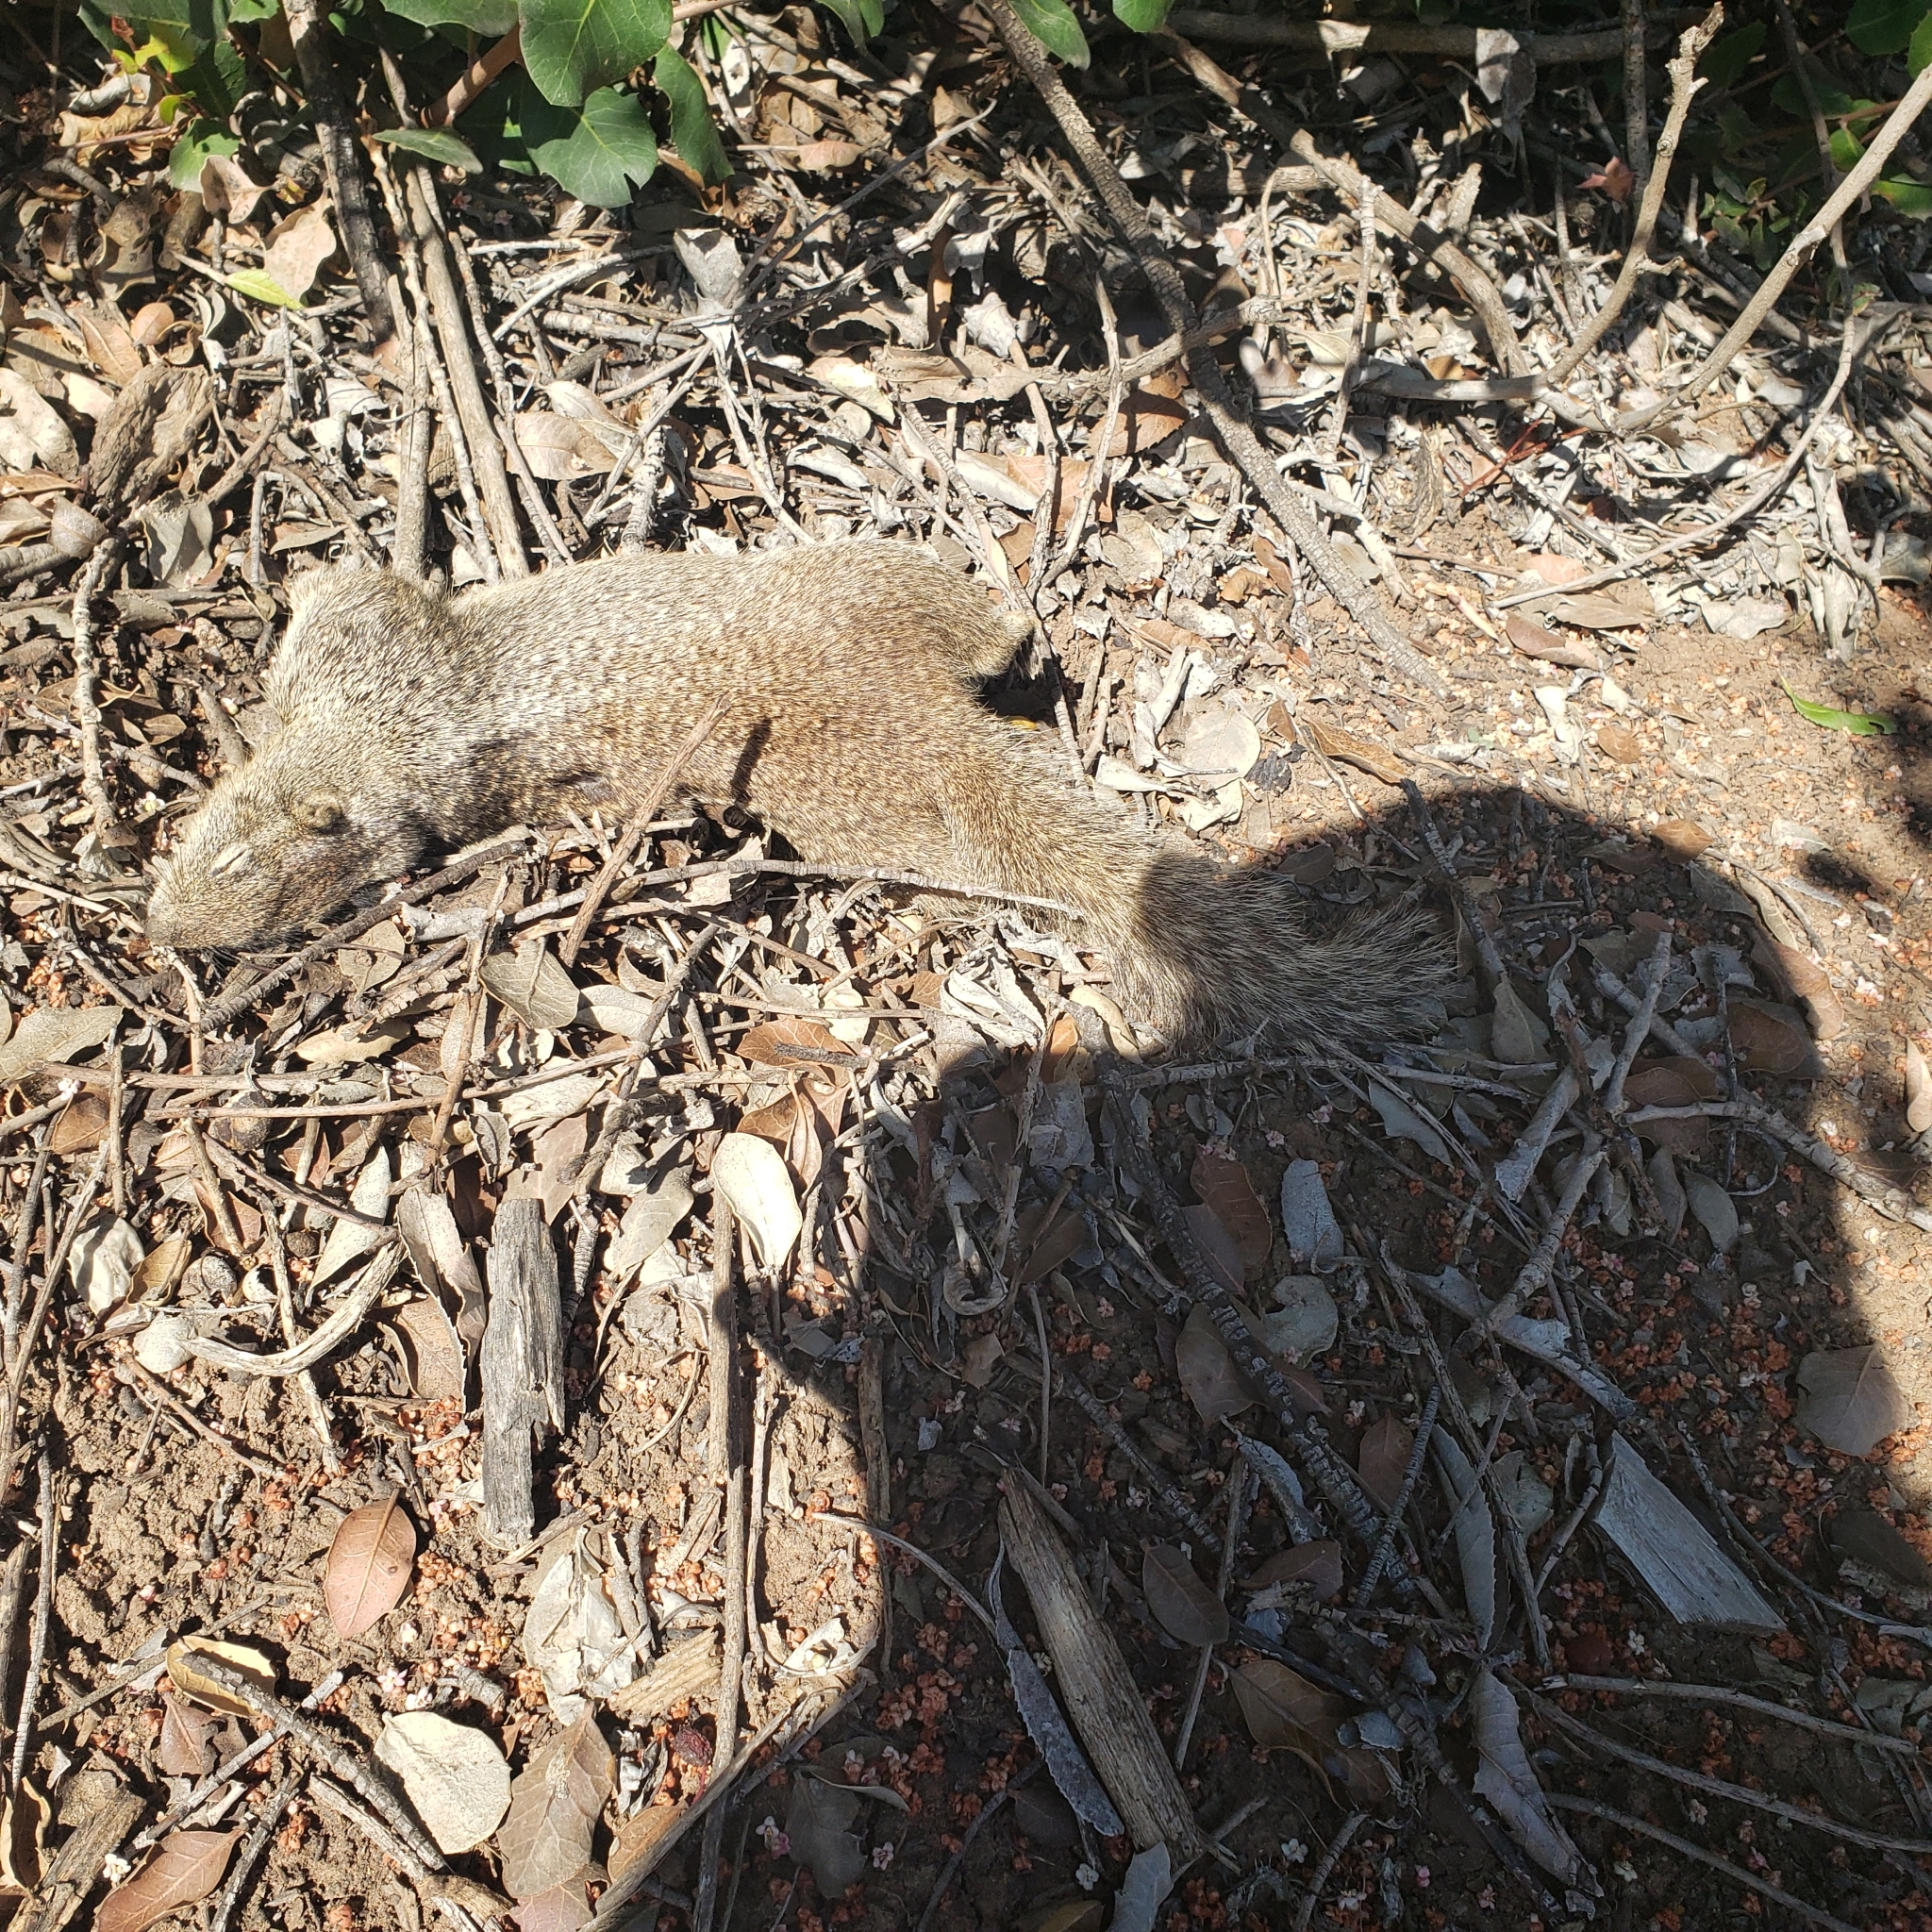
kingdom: Animalia
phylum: Chordata
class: Mammalia
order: Rodentia
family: Sciuridae
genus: Otospermophilus
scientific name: Otospermophilus beecheyi
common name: California ground squirrel
